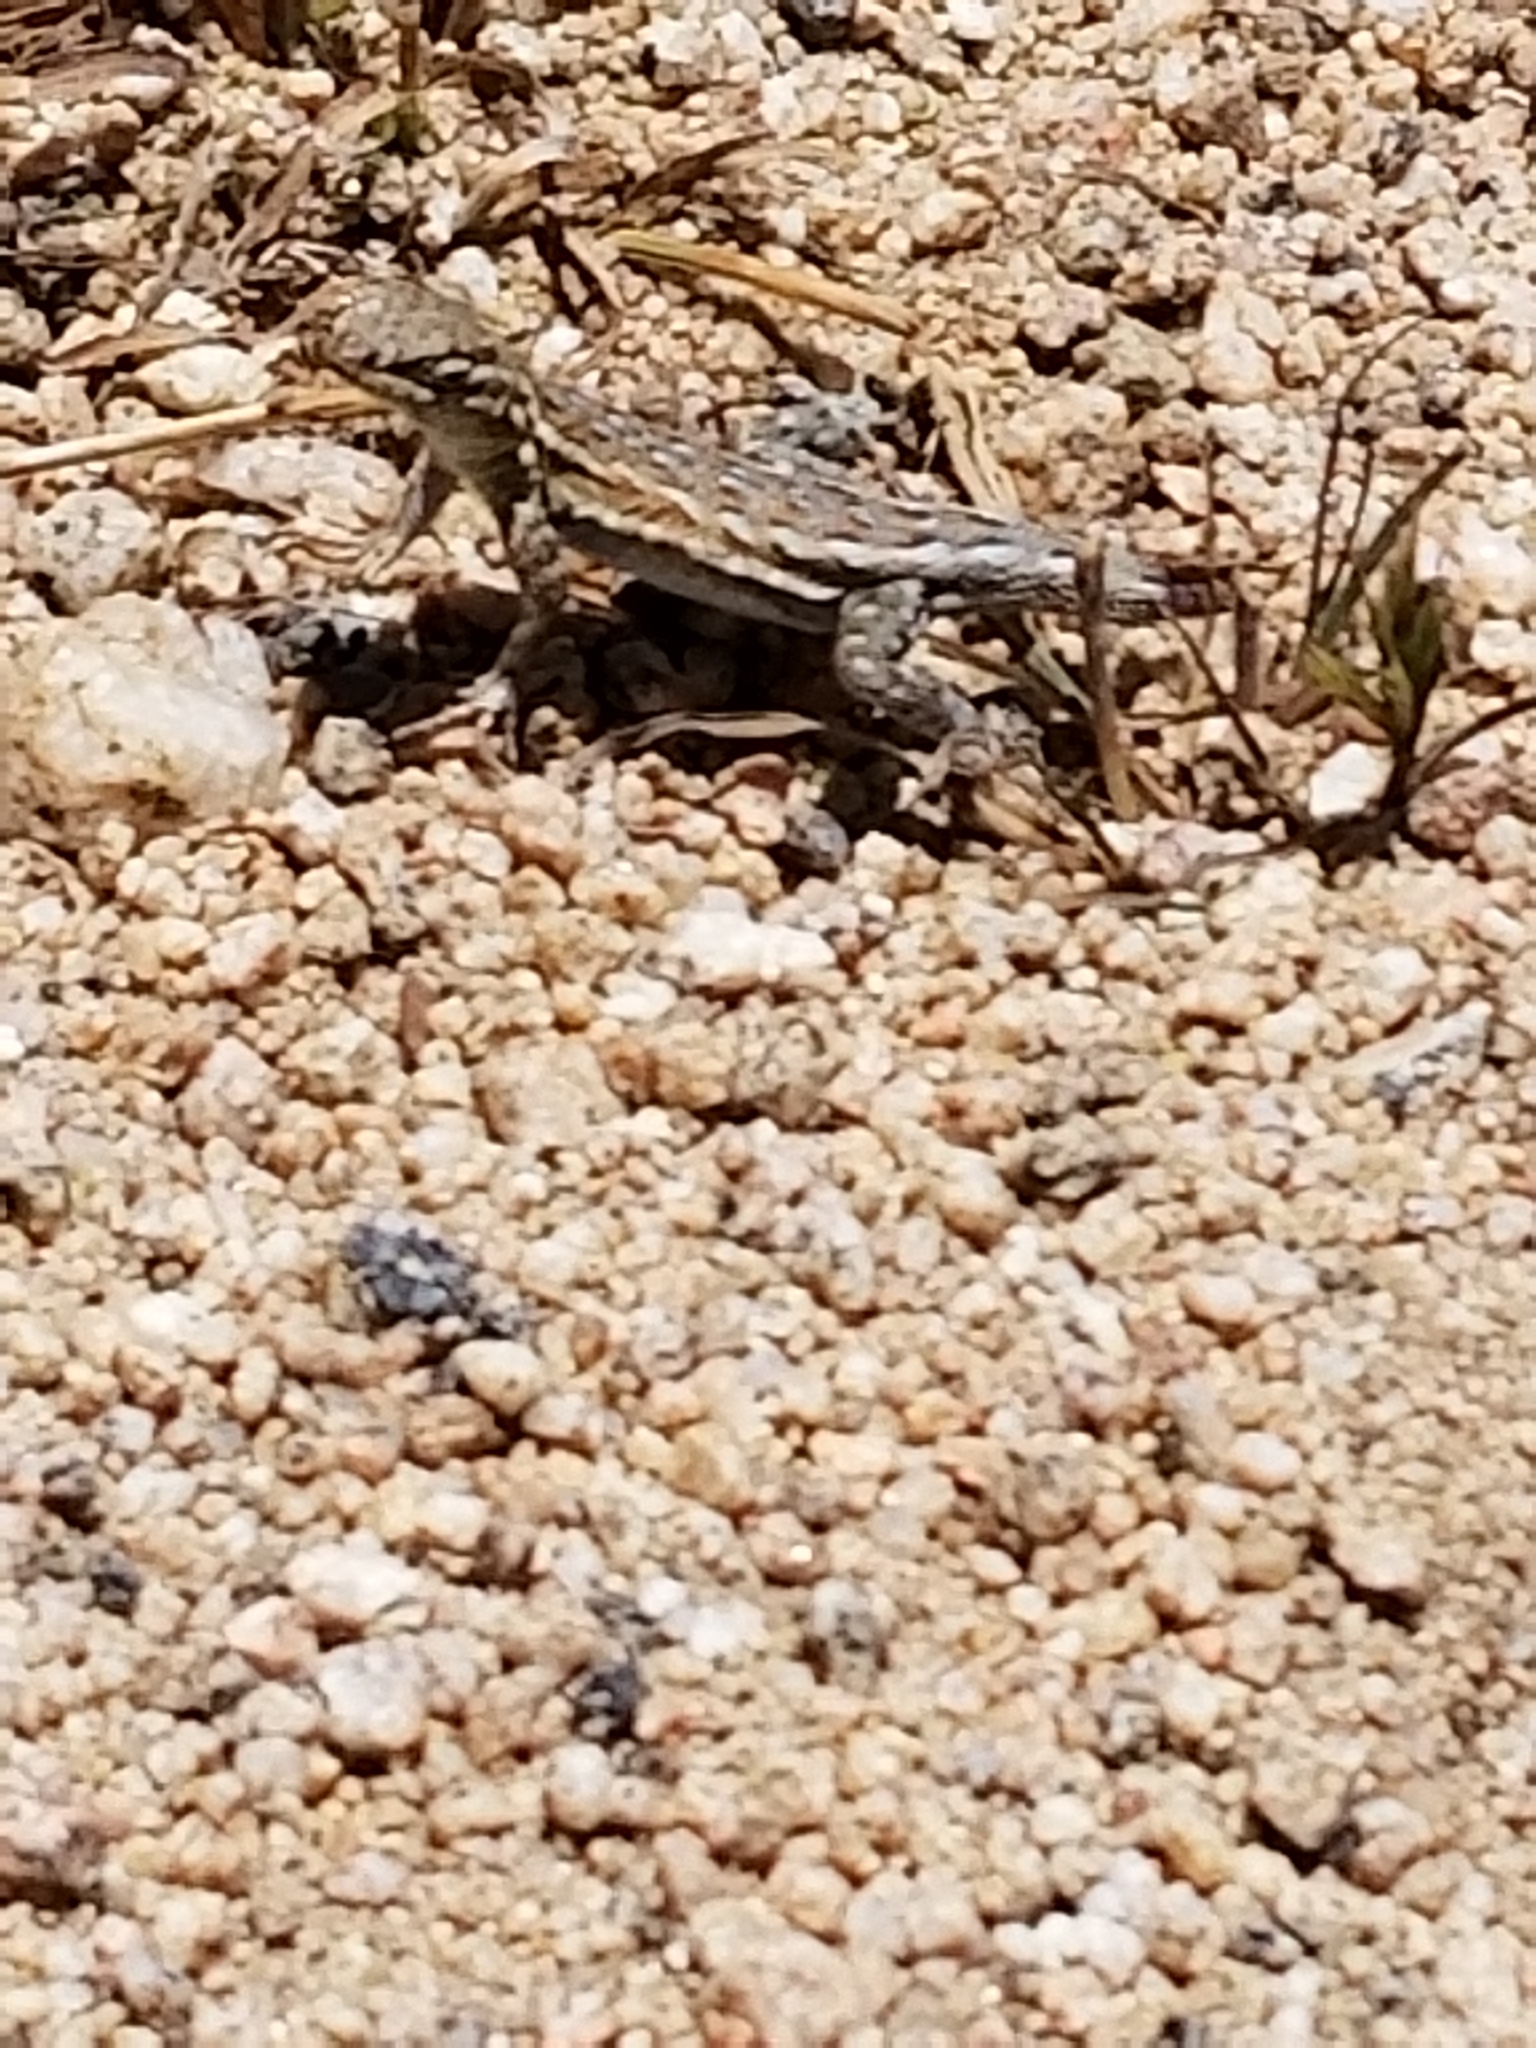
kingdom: Animalia
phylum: Chordata
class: Squamata
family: Phrynosomatidae
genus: Uta
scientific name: Uta stansburiana
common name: Side-blotched lizard
